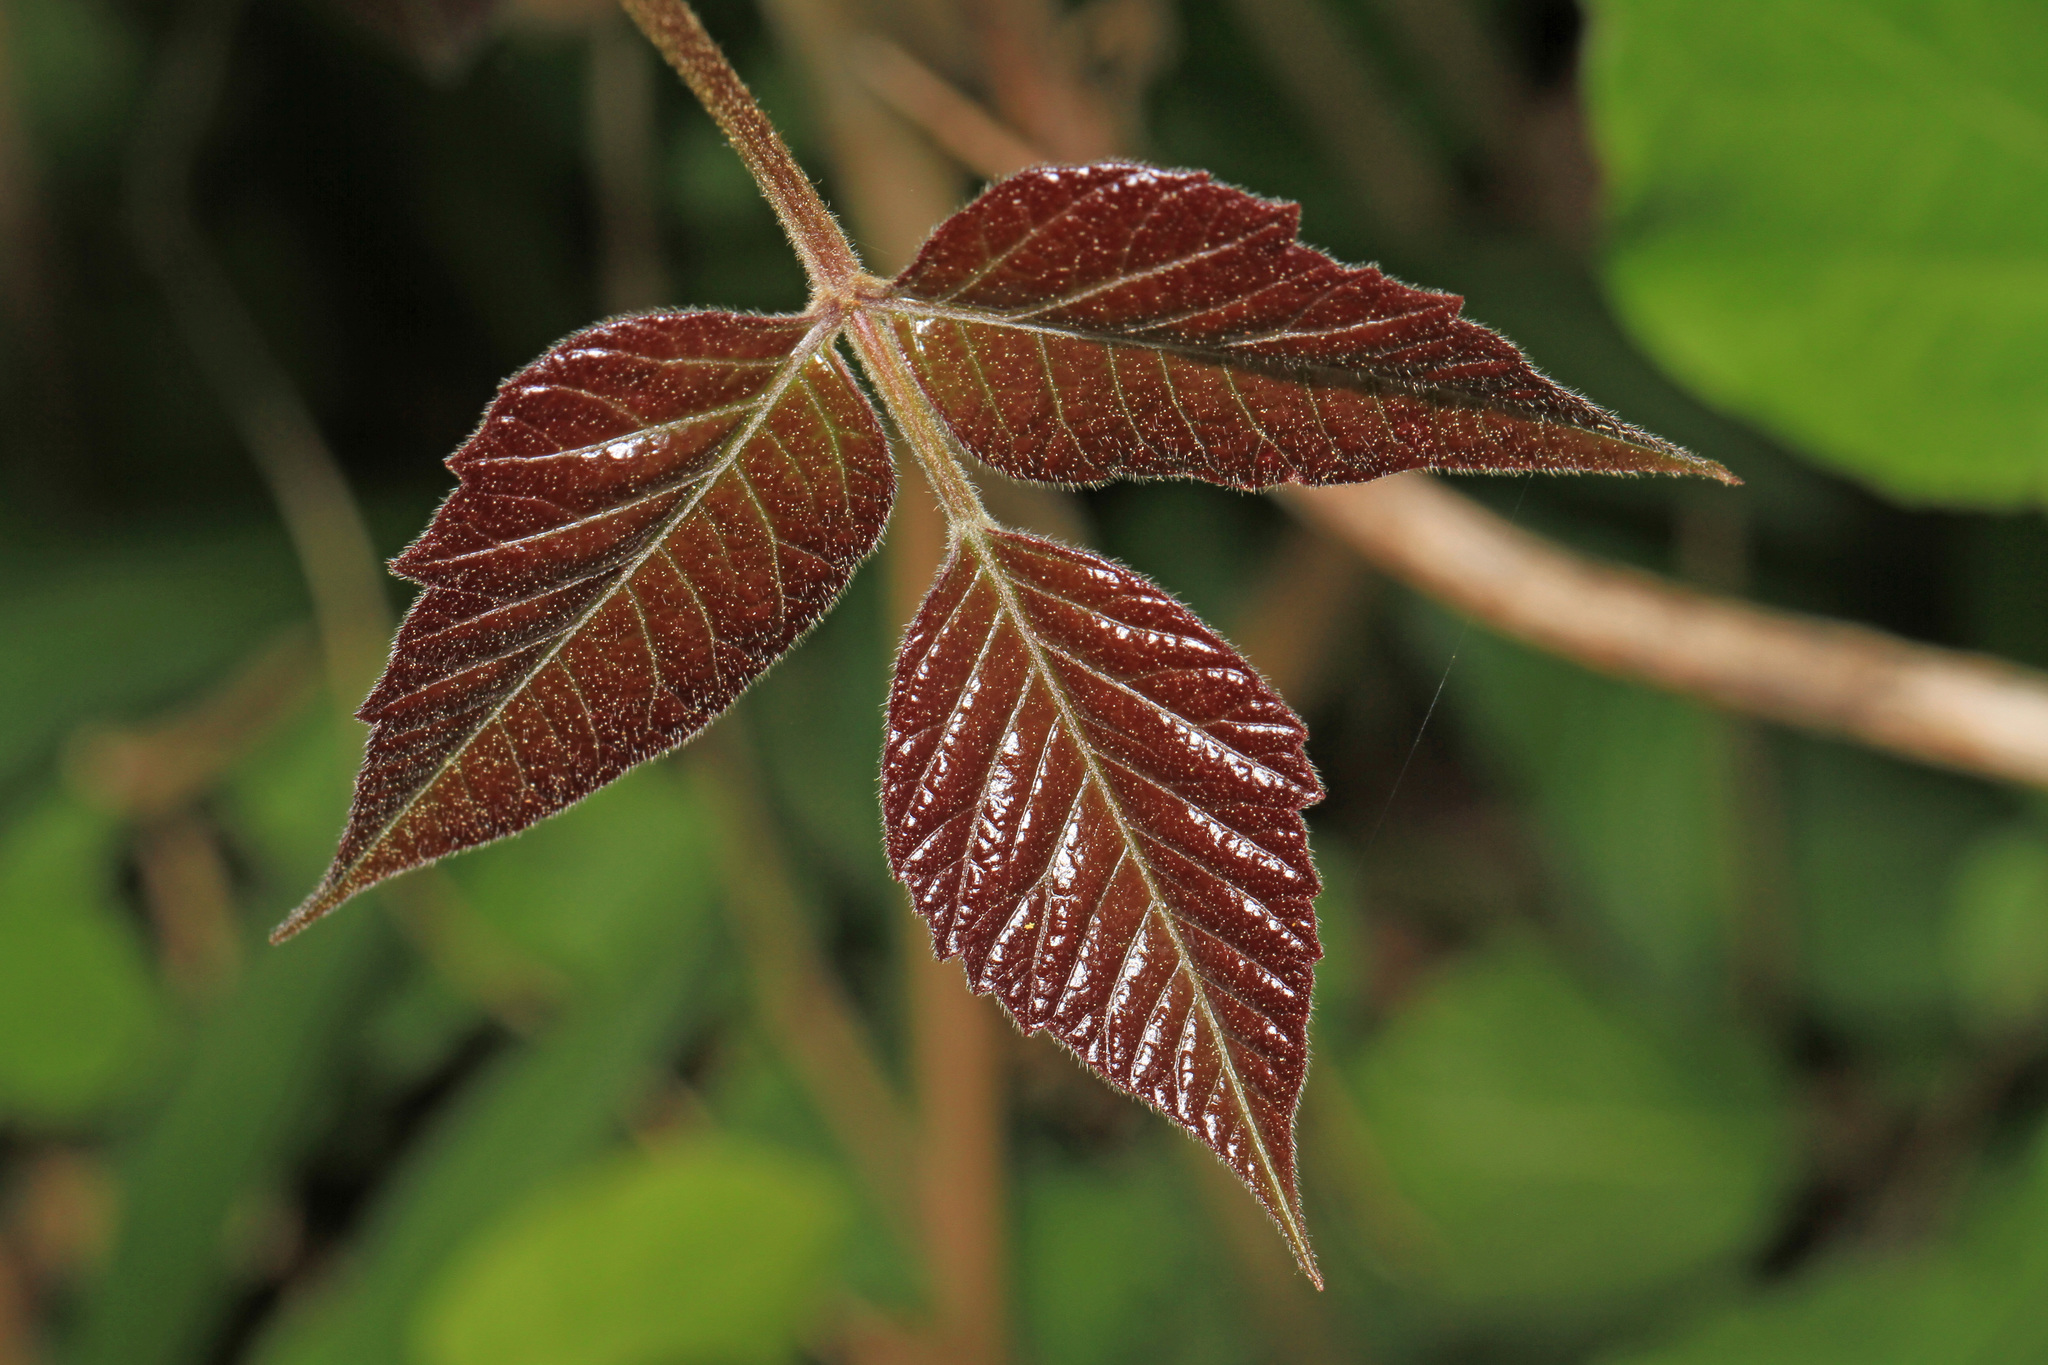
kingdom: Plantae
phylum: Tracheophyta
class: Magnoliopsida
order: Sapindales
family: Anacardiaceae
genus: Toxicodendron
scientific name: Toxicodendron radicans
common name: Poison ivy
